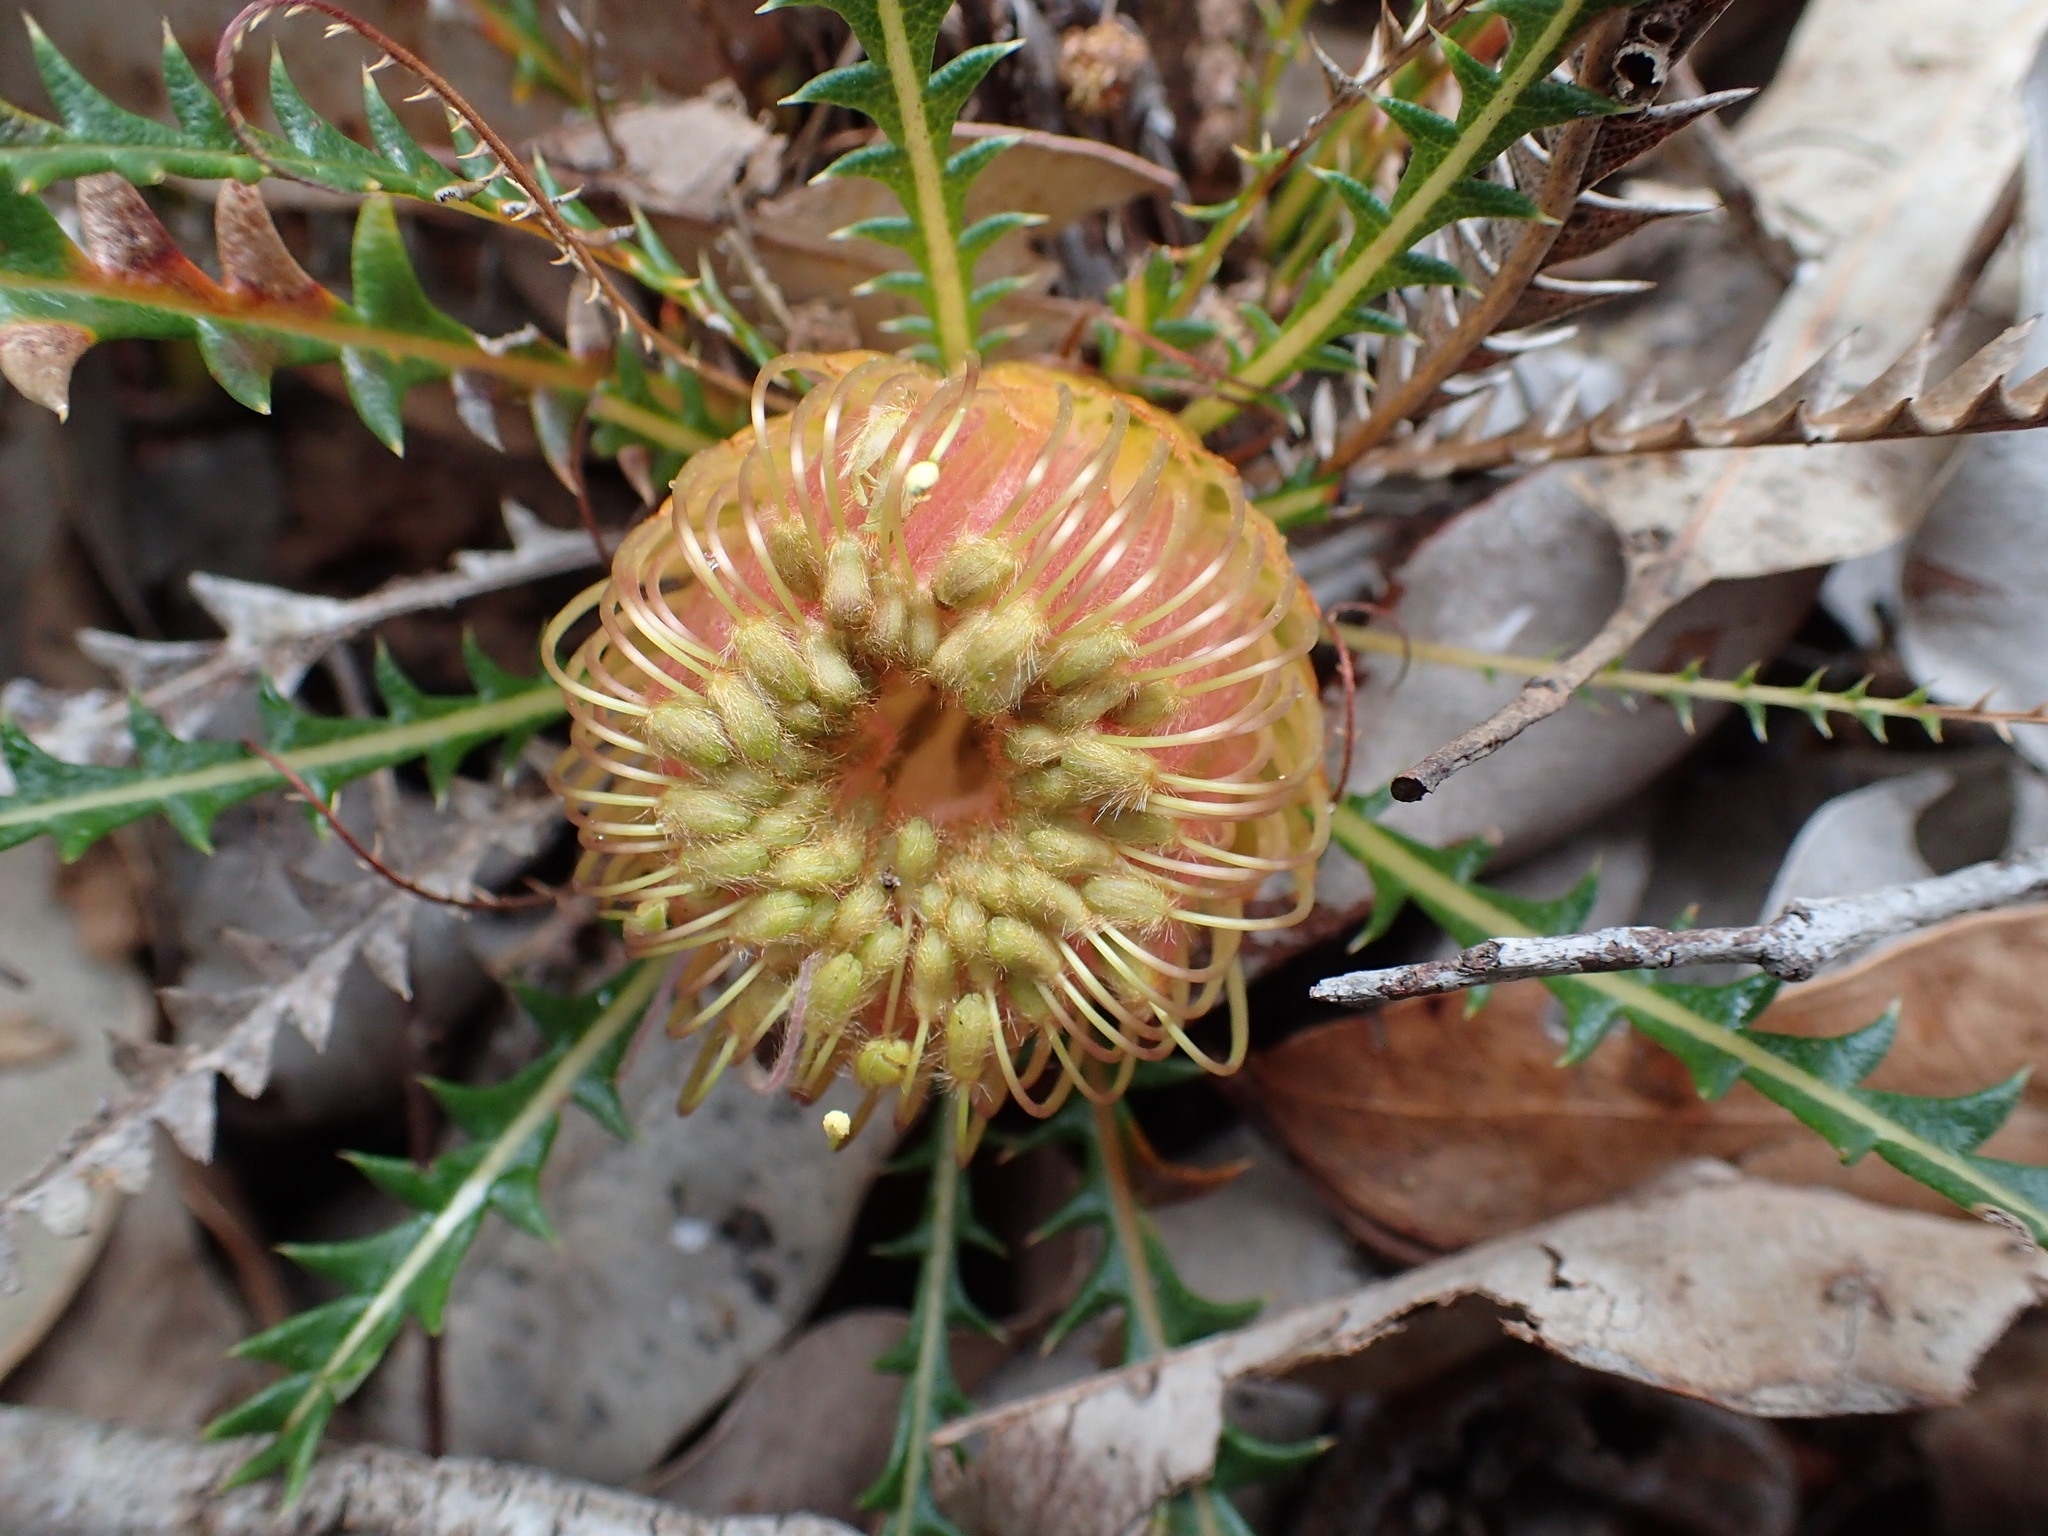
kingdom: Plantae
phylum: Tracheophyta
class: Magnoliopsida
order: Proteales
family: Proteaceae
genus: Banksia
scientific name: Banksia dallanneyi
